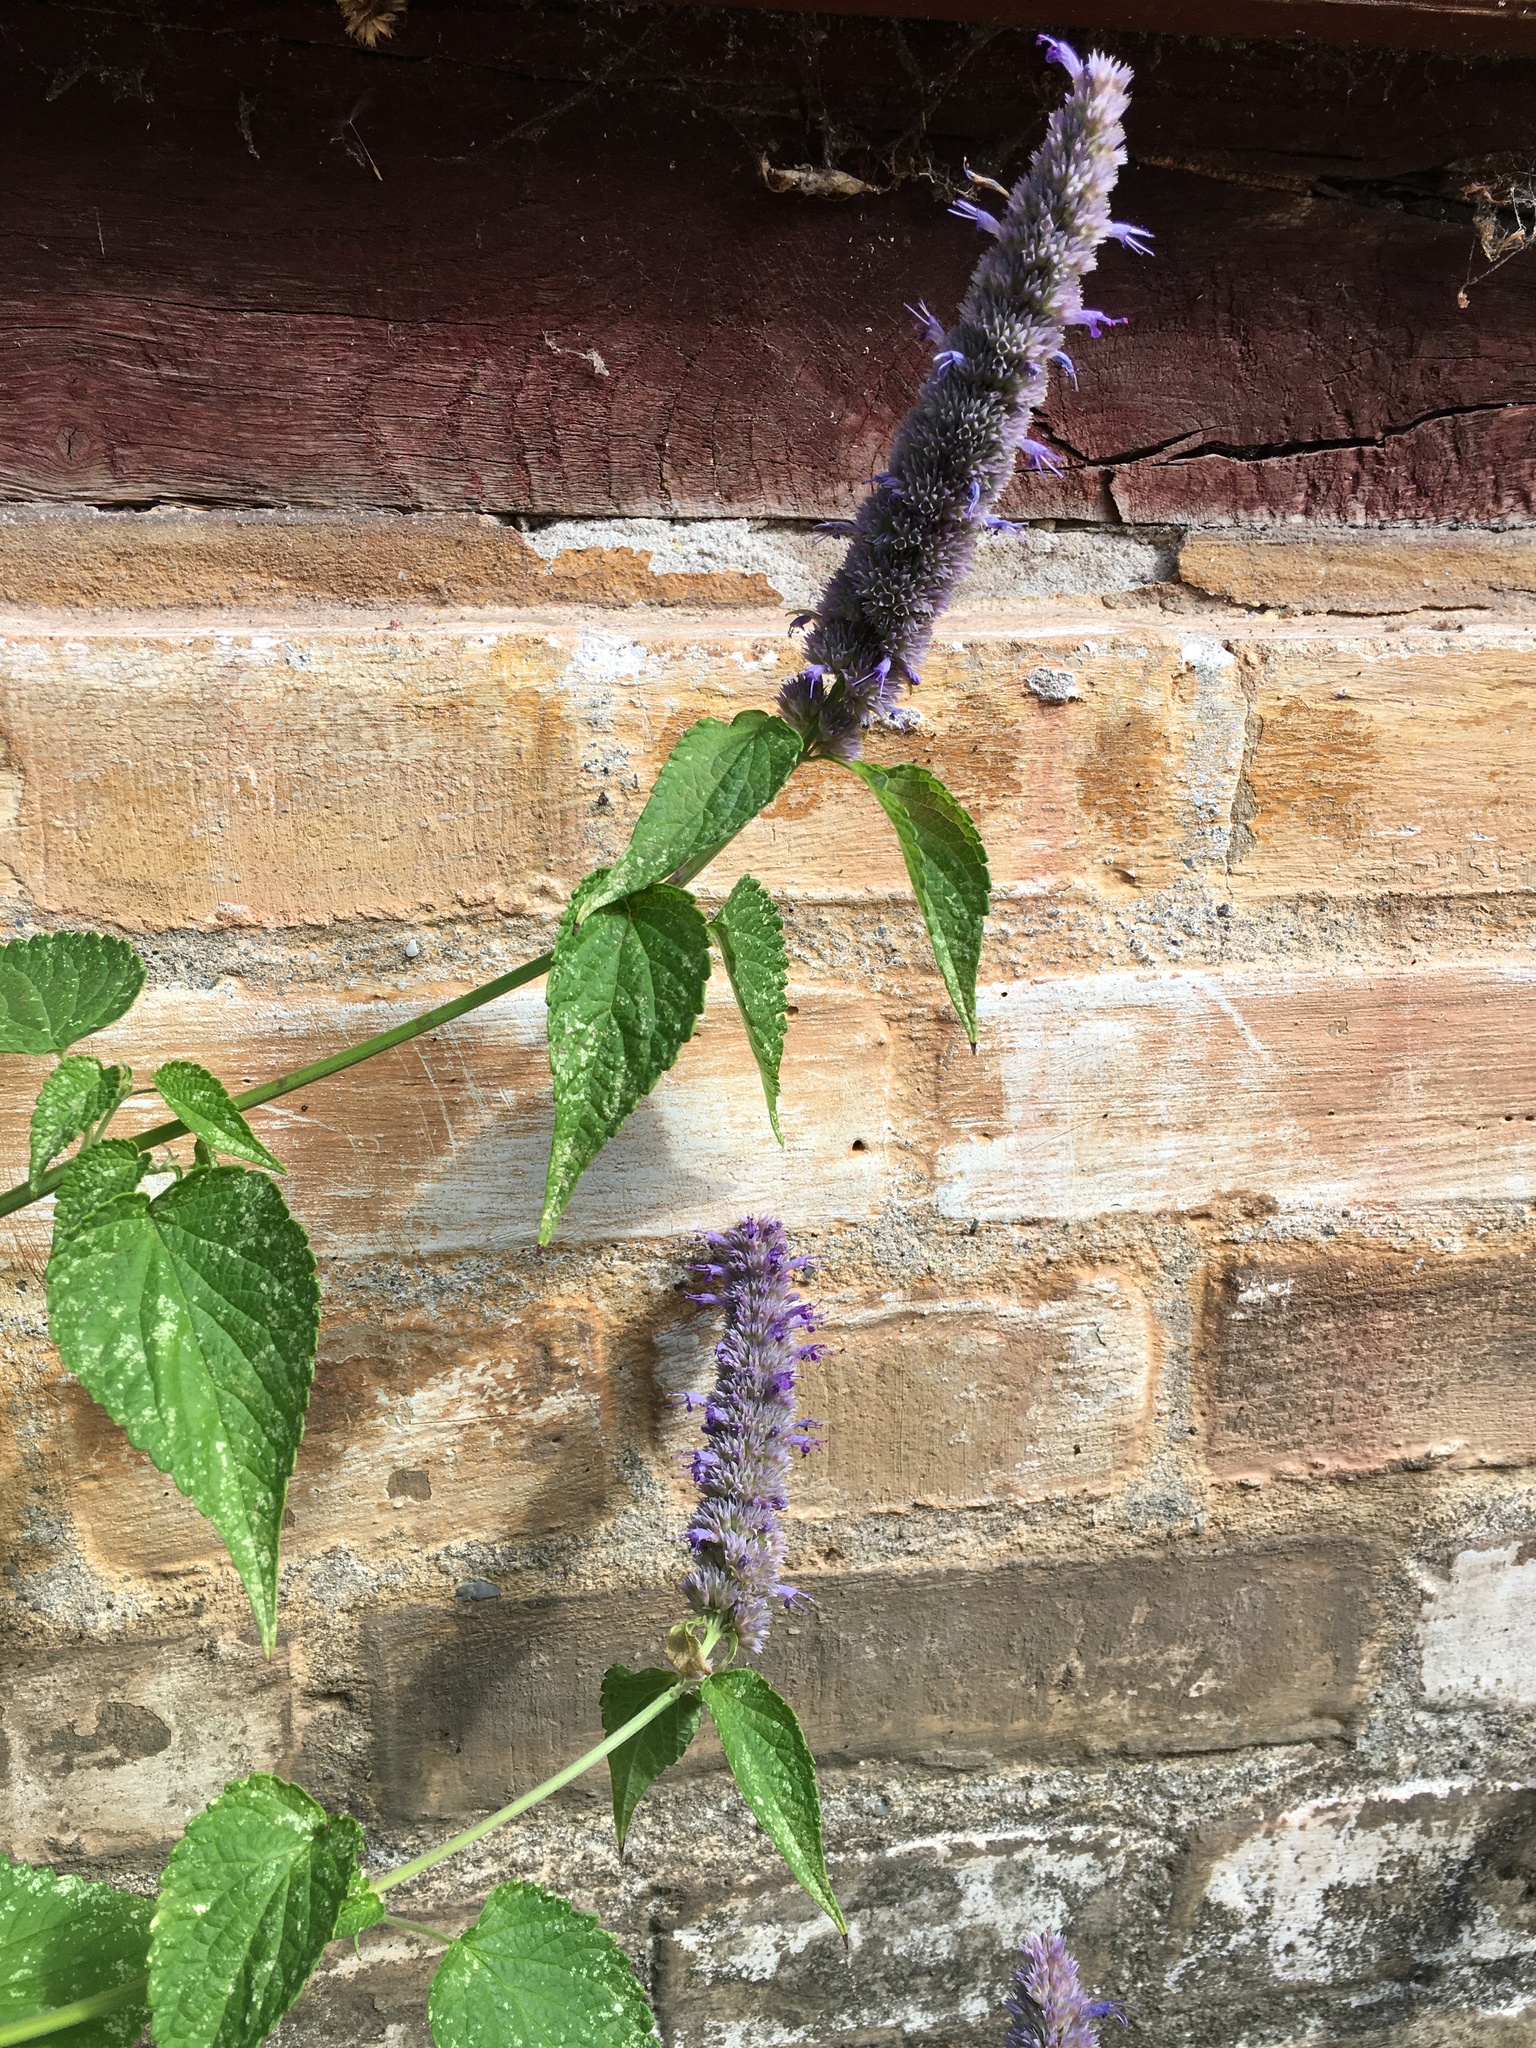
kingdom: Plantae
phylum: Tracheophyta
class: Magnoliopsida
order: Lamiales
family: Lamiaceae
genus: Agastache
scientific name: Agastache foeniculum
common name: Anise hyssop
